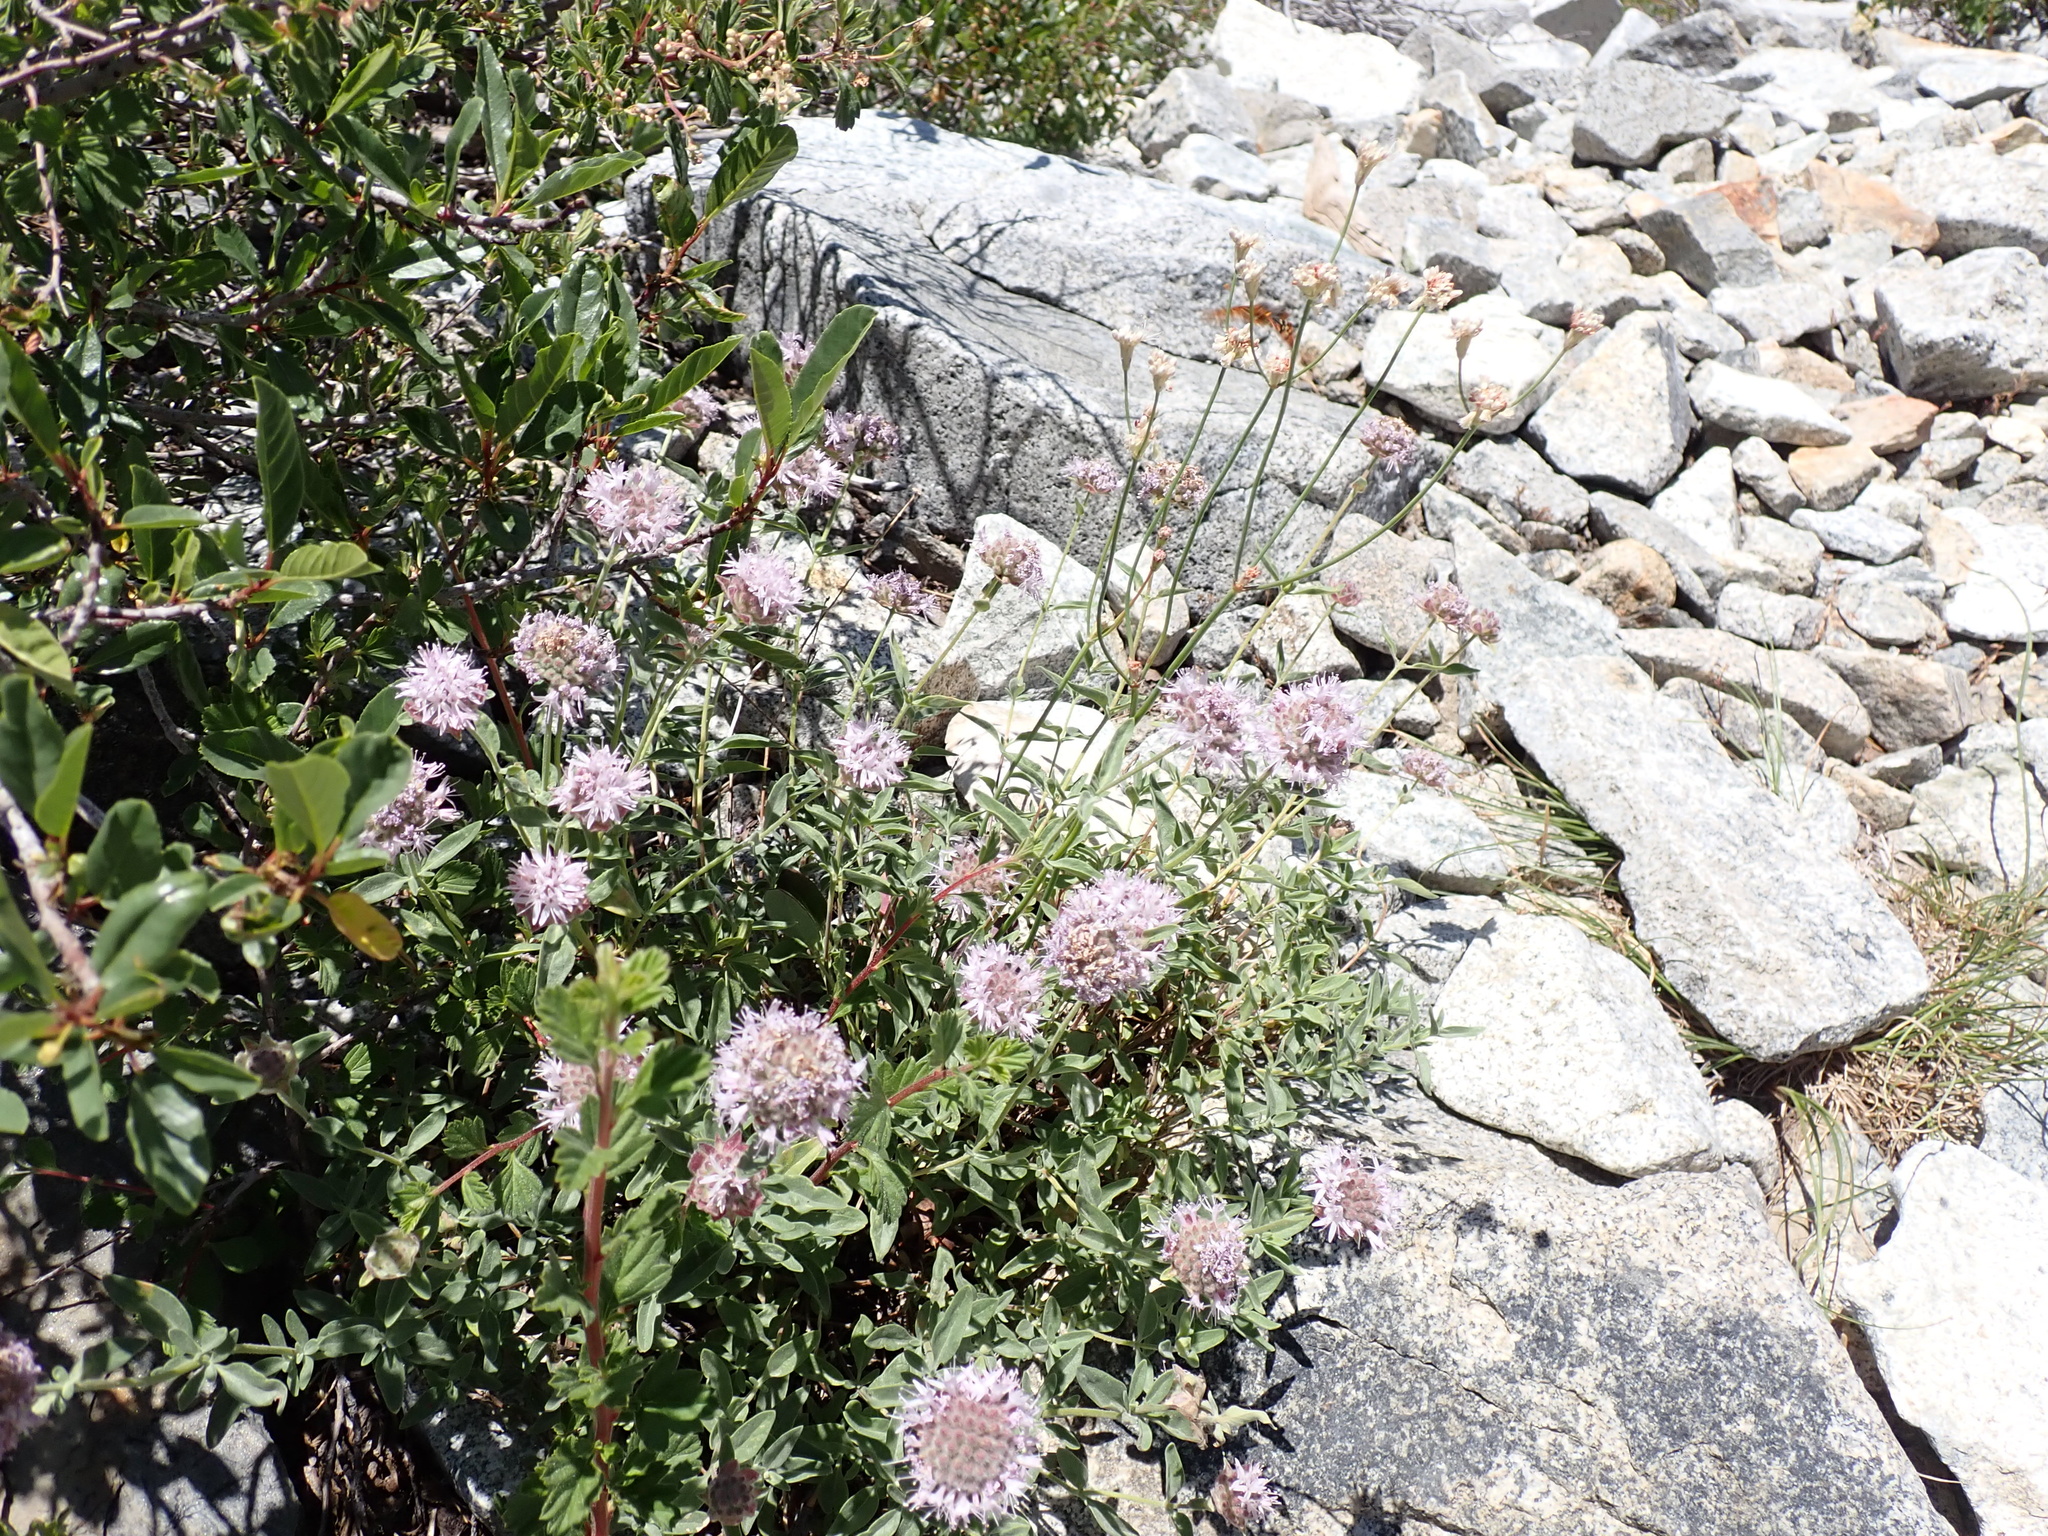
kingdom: Plantae
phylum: Tracheophyta
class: Magnoliopsida
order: Lamiales
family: Lamiaceae
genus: Monardella
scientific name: Monardella odoratissima
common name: Pacific monardella
